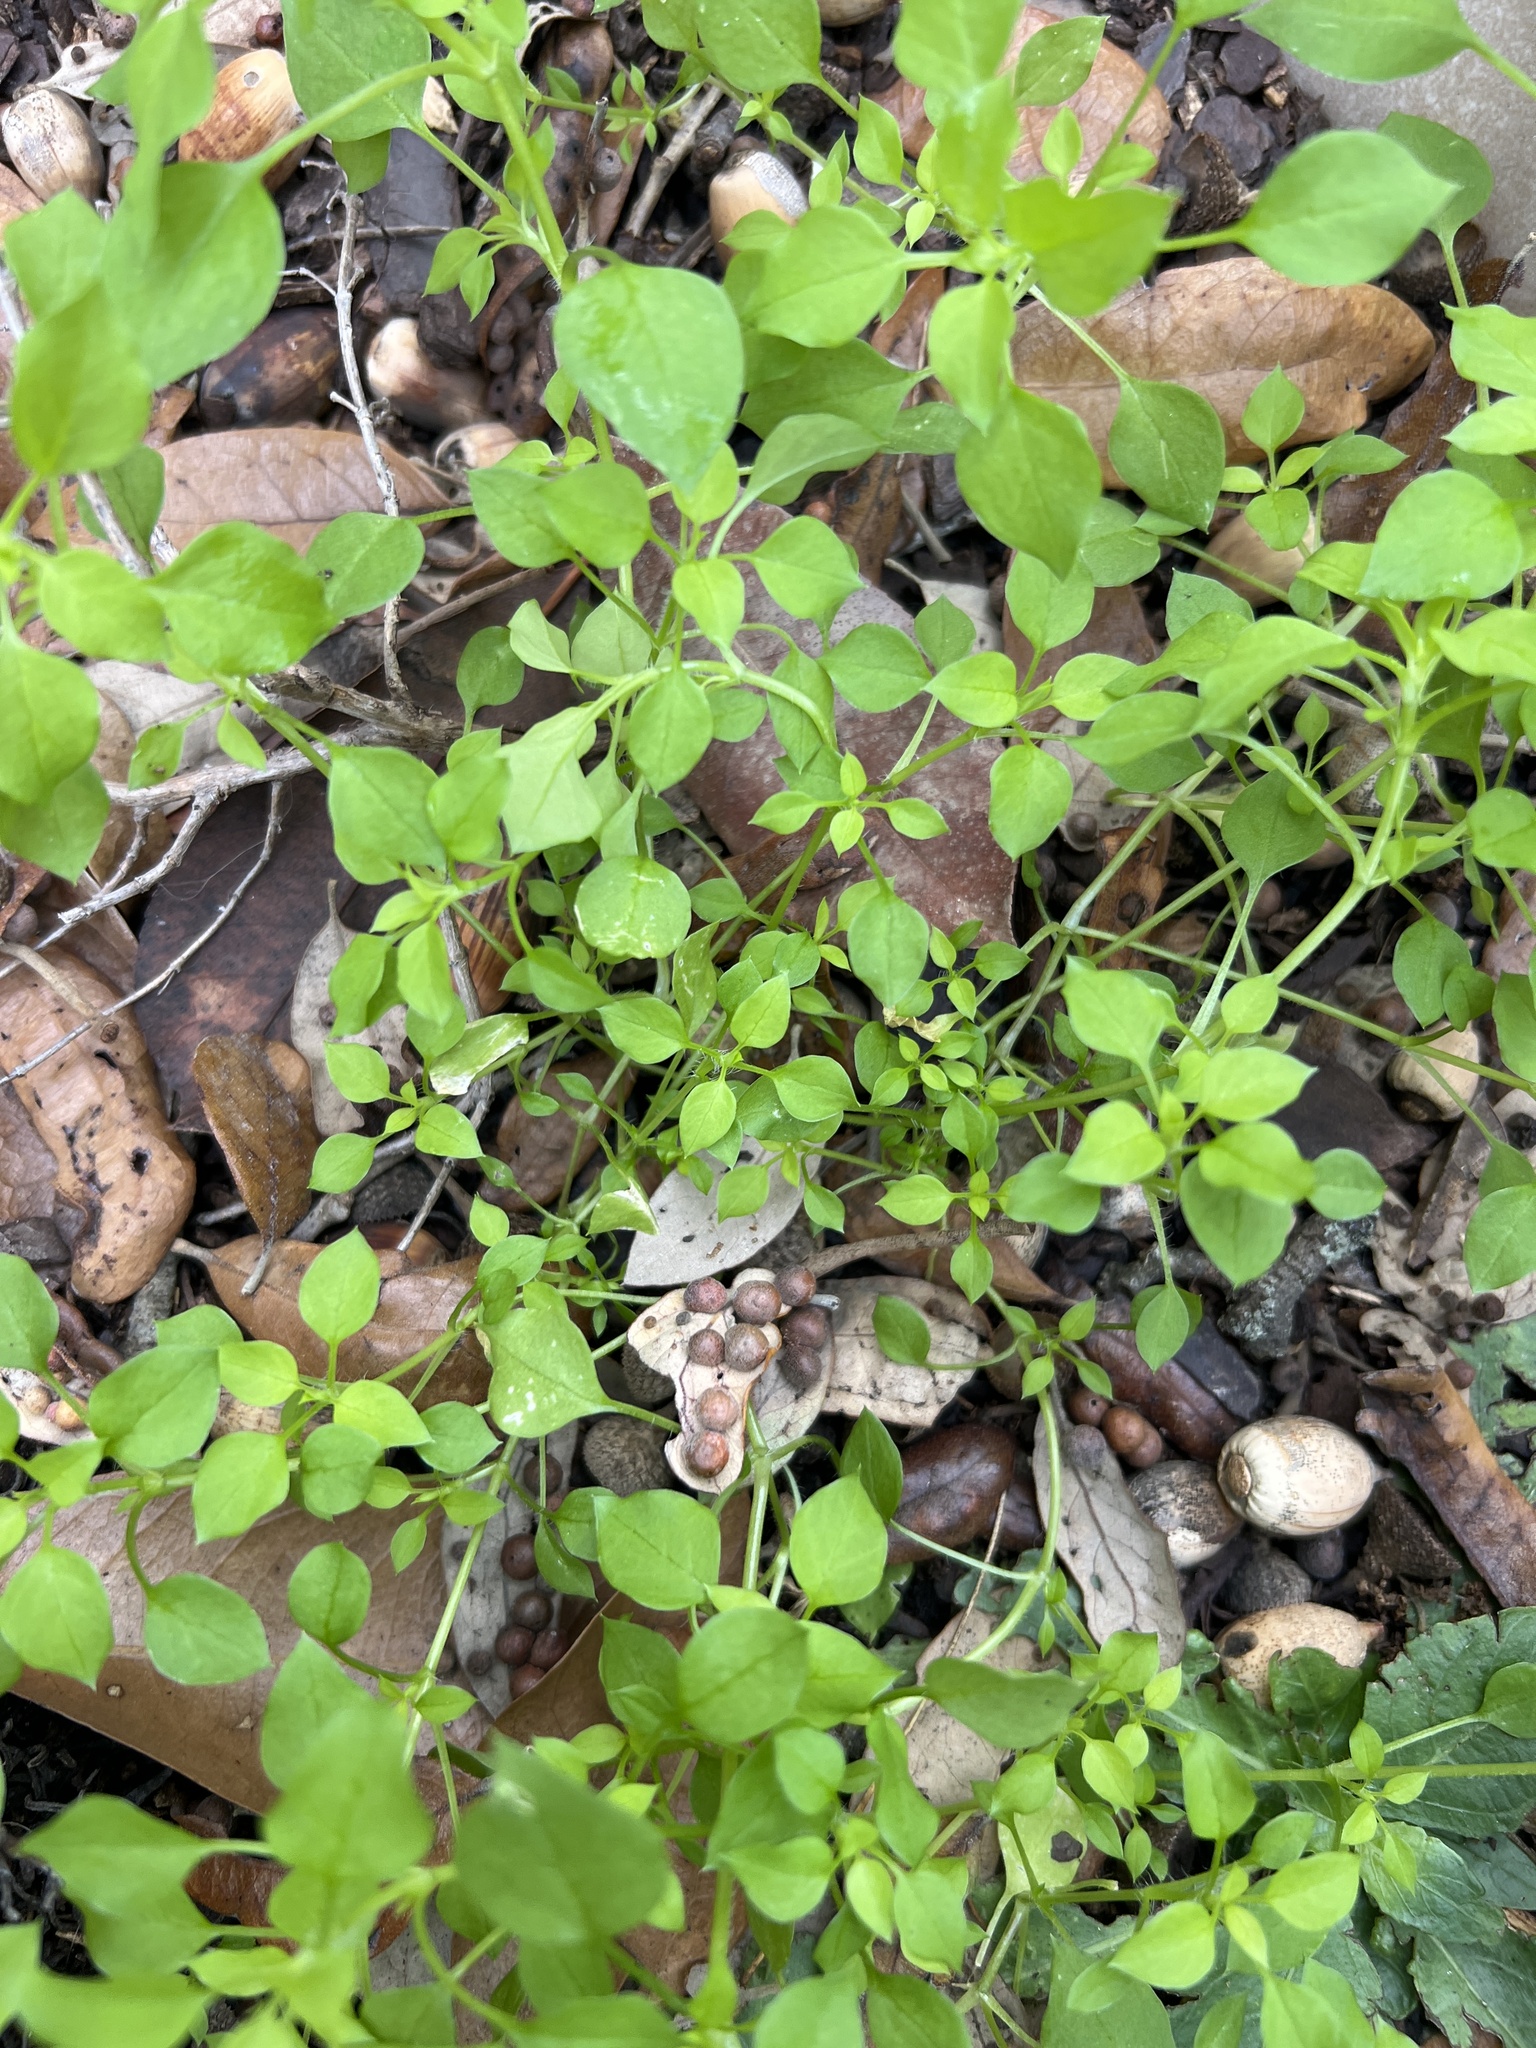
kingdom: Plantae
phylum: Tracheophyta
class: Magnoliopsida
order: Caryophyllales
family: Caryophyllaceae
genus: Stellaria
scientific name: Stellaria media
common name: Common chickweed
